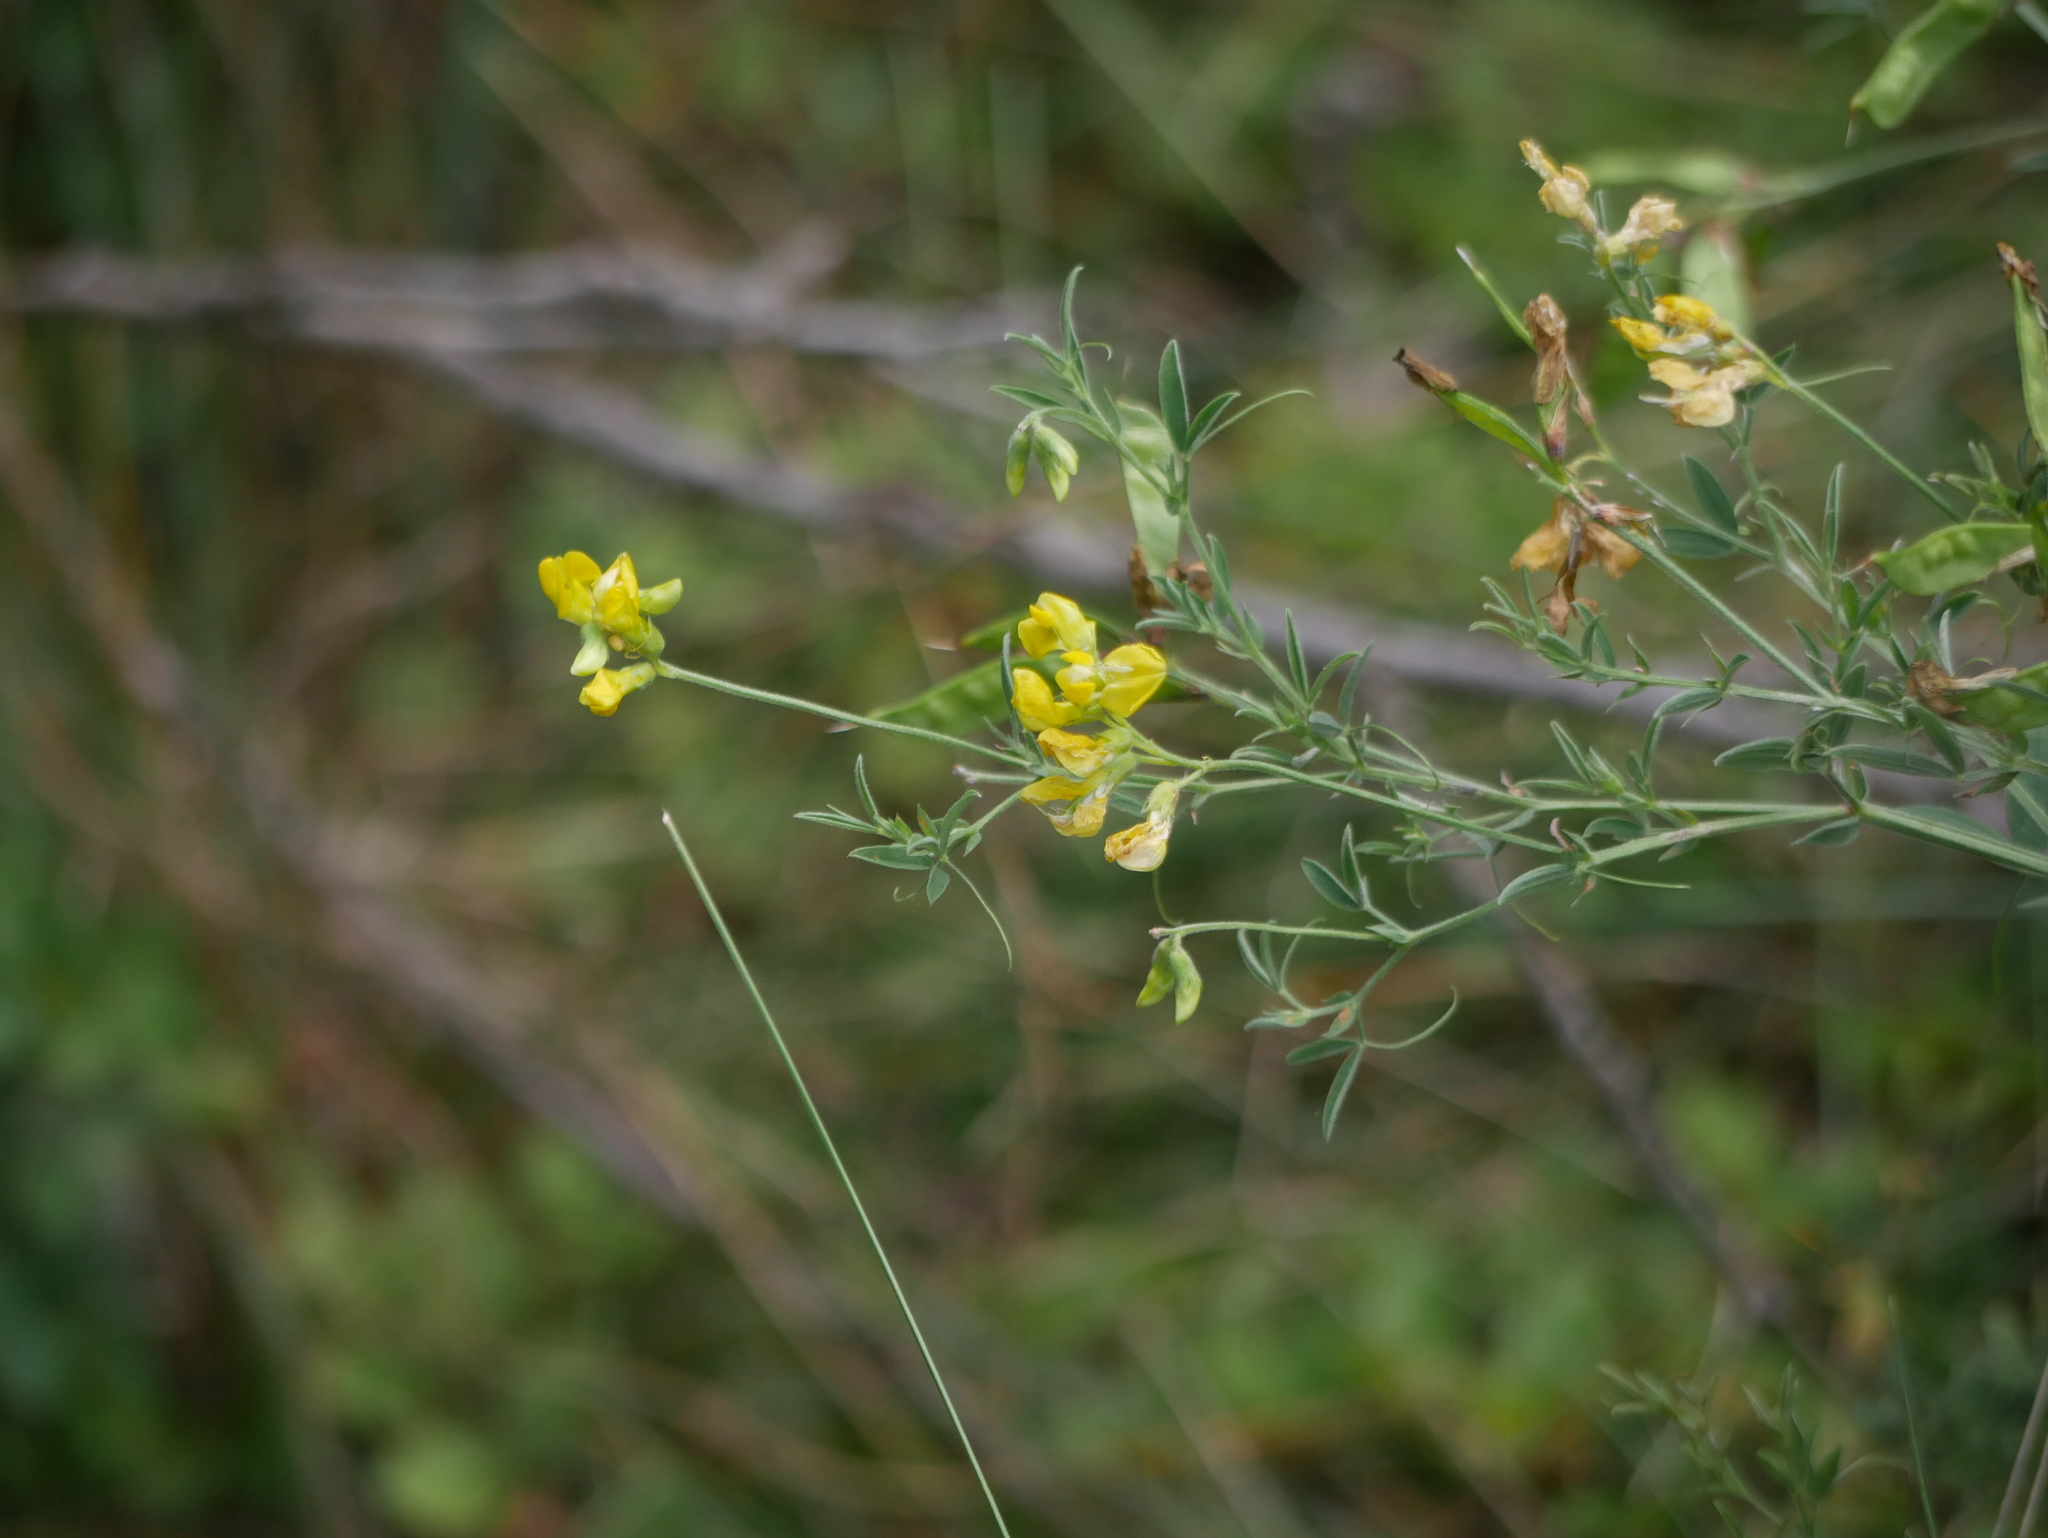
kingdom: Plantae
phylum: Tracheophyta
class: Magnoliopsida
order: Fabales
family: Fabaceae
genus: Lathyrus
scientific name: Lathyrus pratensis
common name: Meadow vetchling
